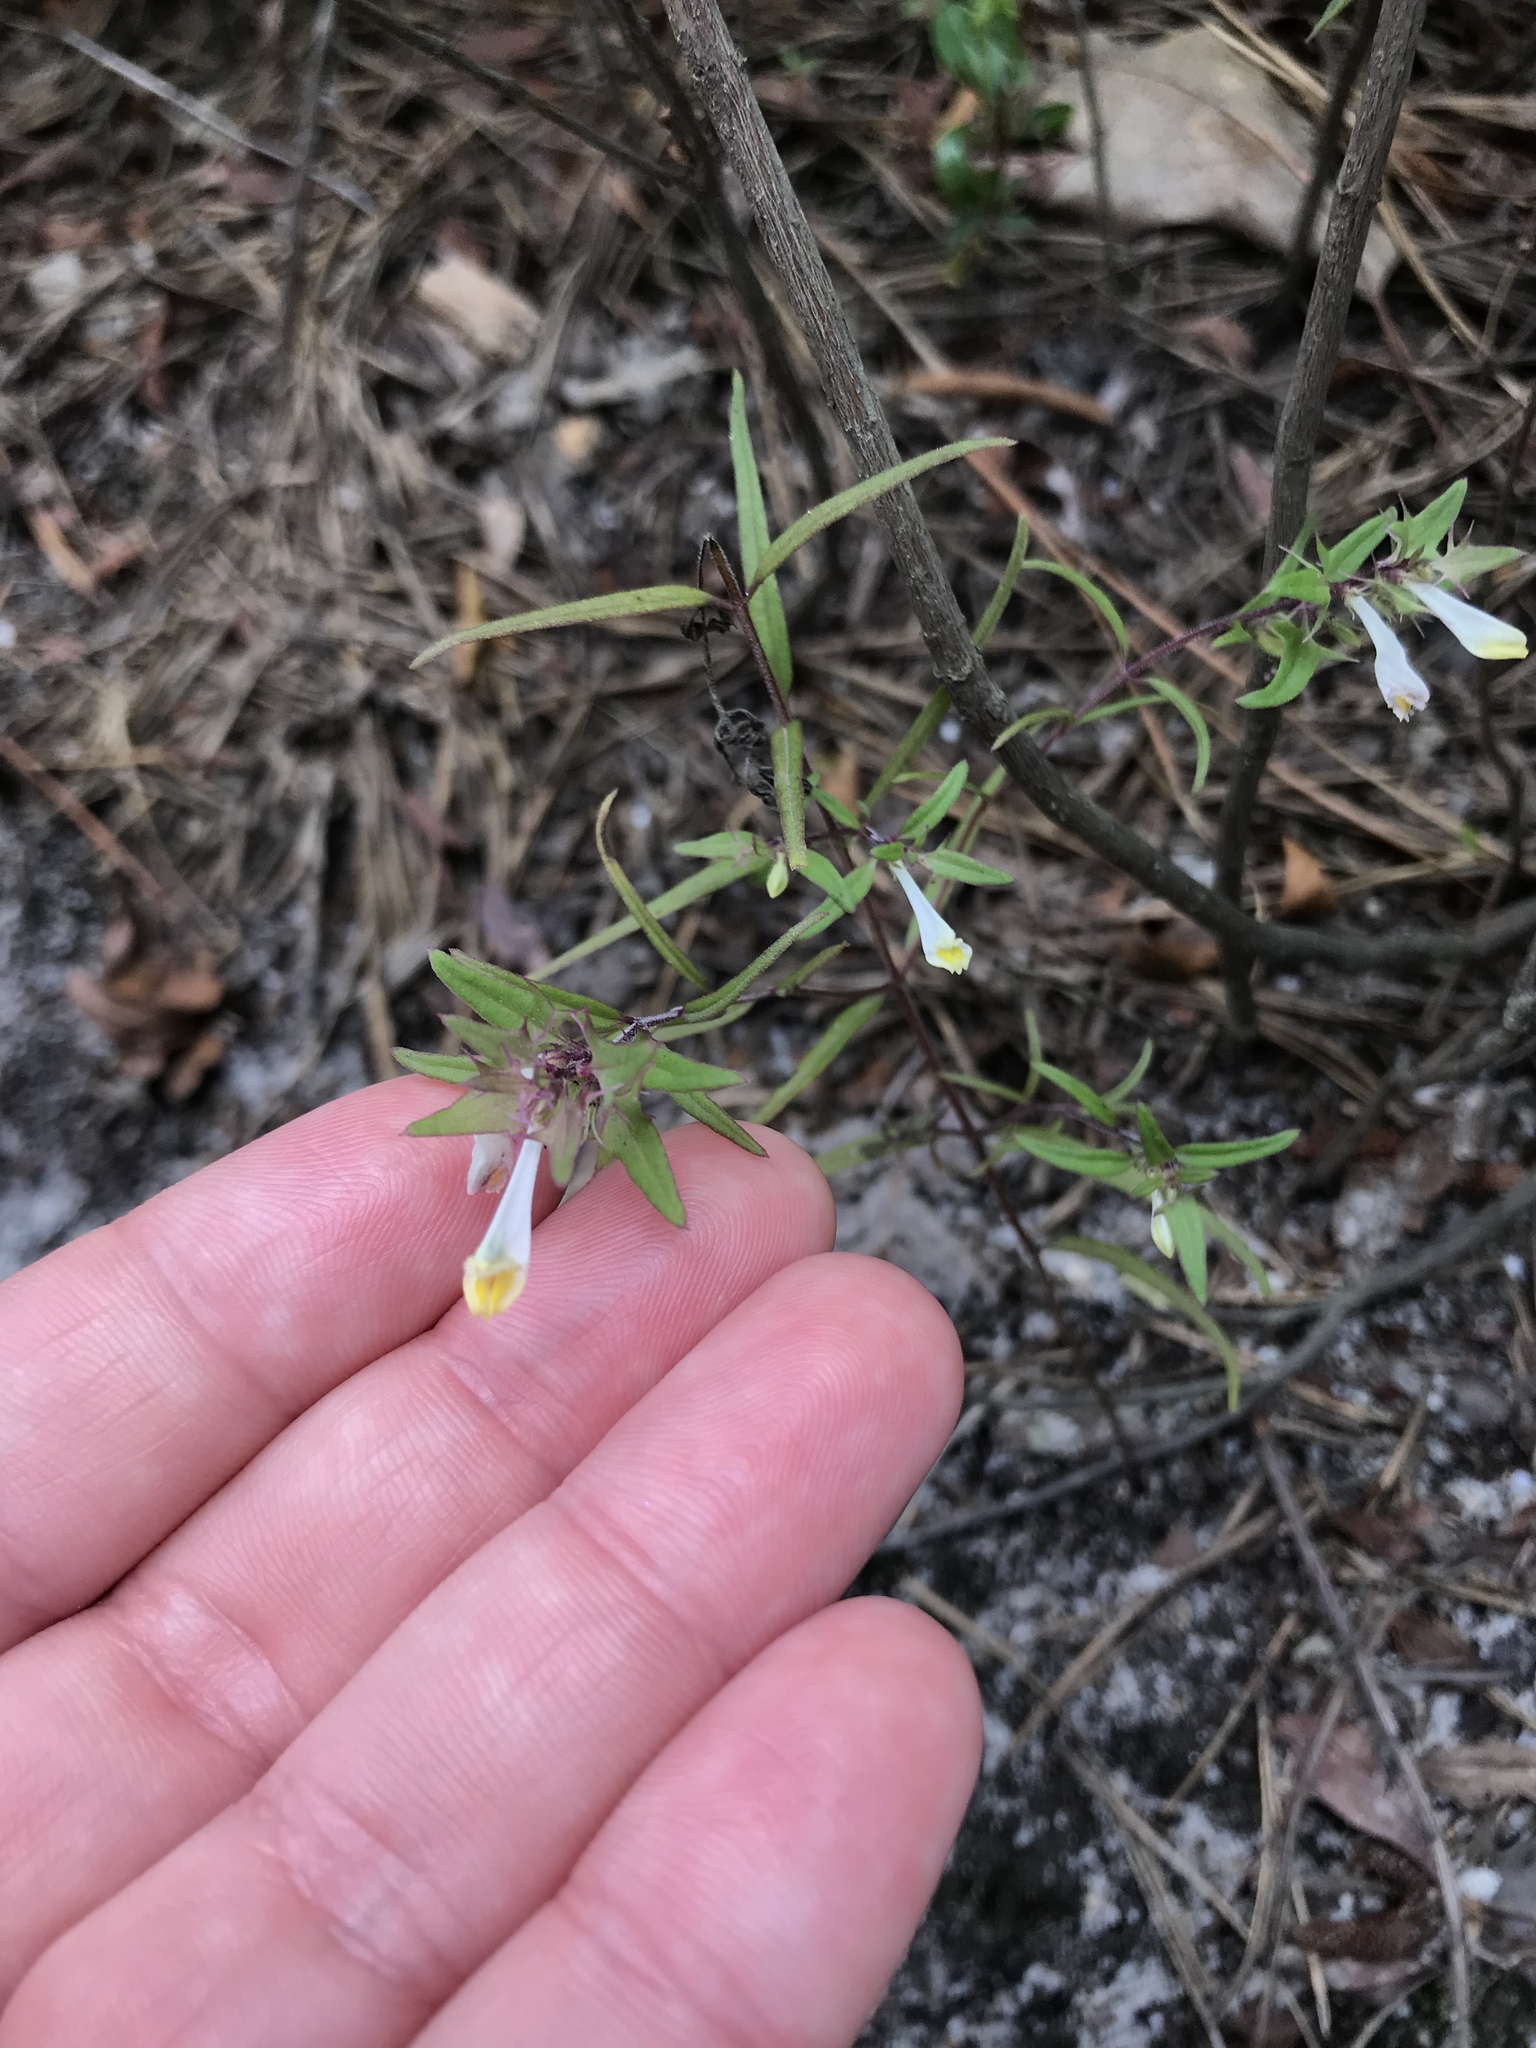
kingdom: Plantae
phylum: Tracheophyta
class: Magnoliopsida
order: Lamiales
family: Orobanchaceae
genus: Melampyrum
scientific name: Melampyrum lineare
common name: American cow-wheat
